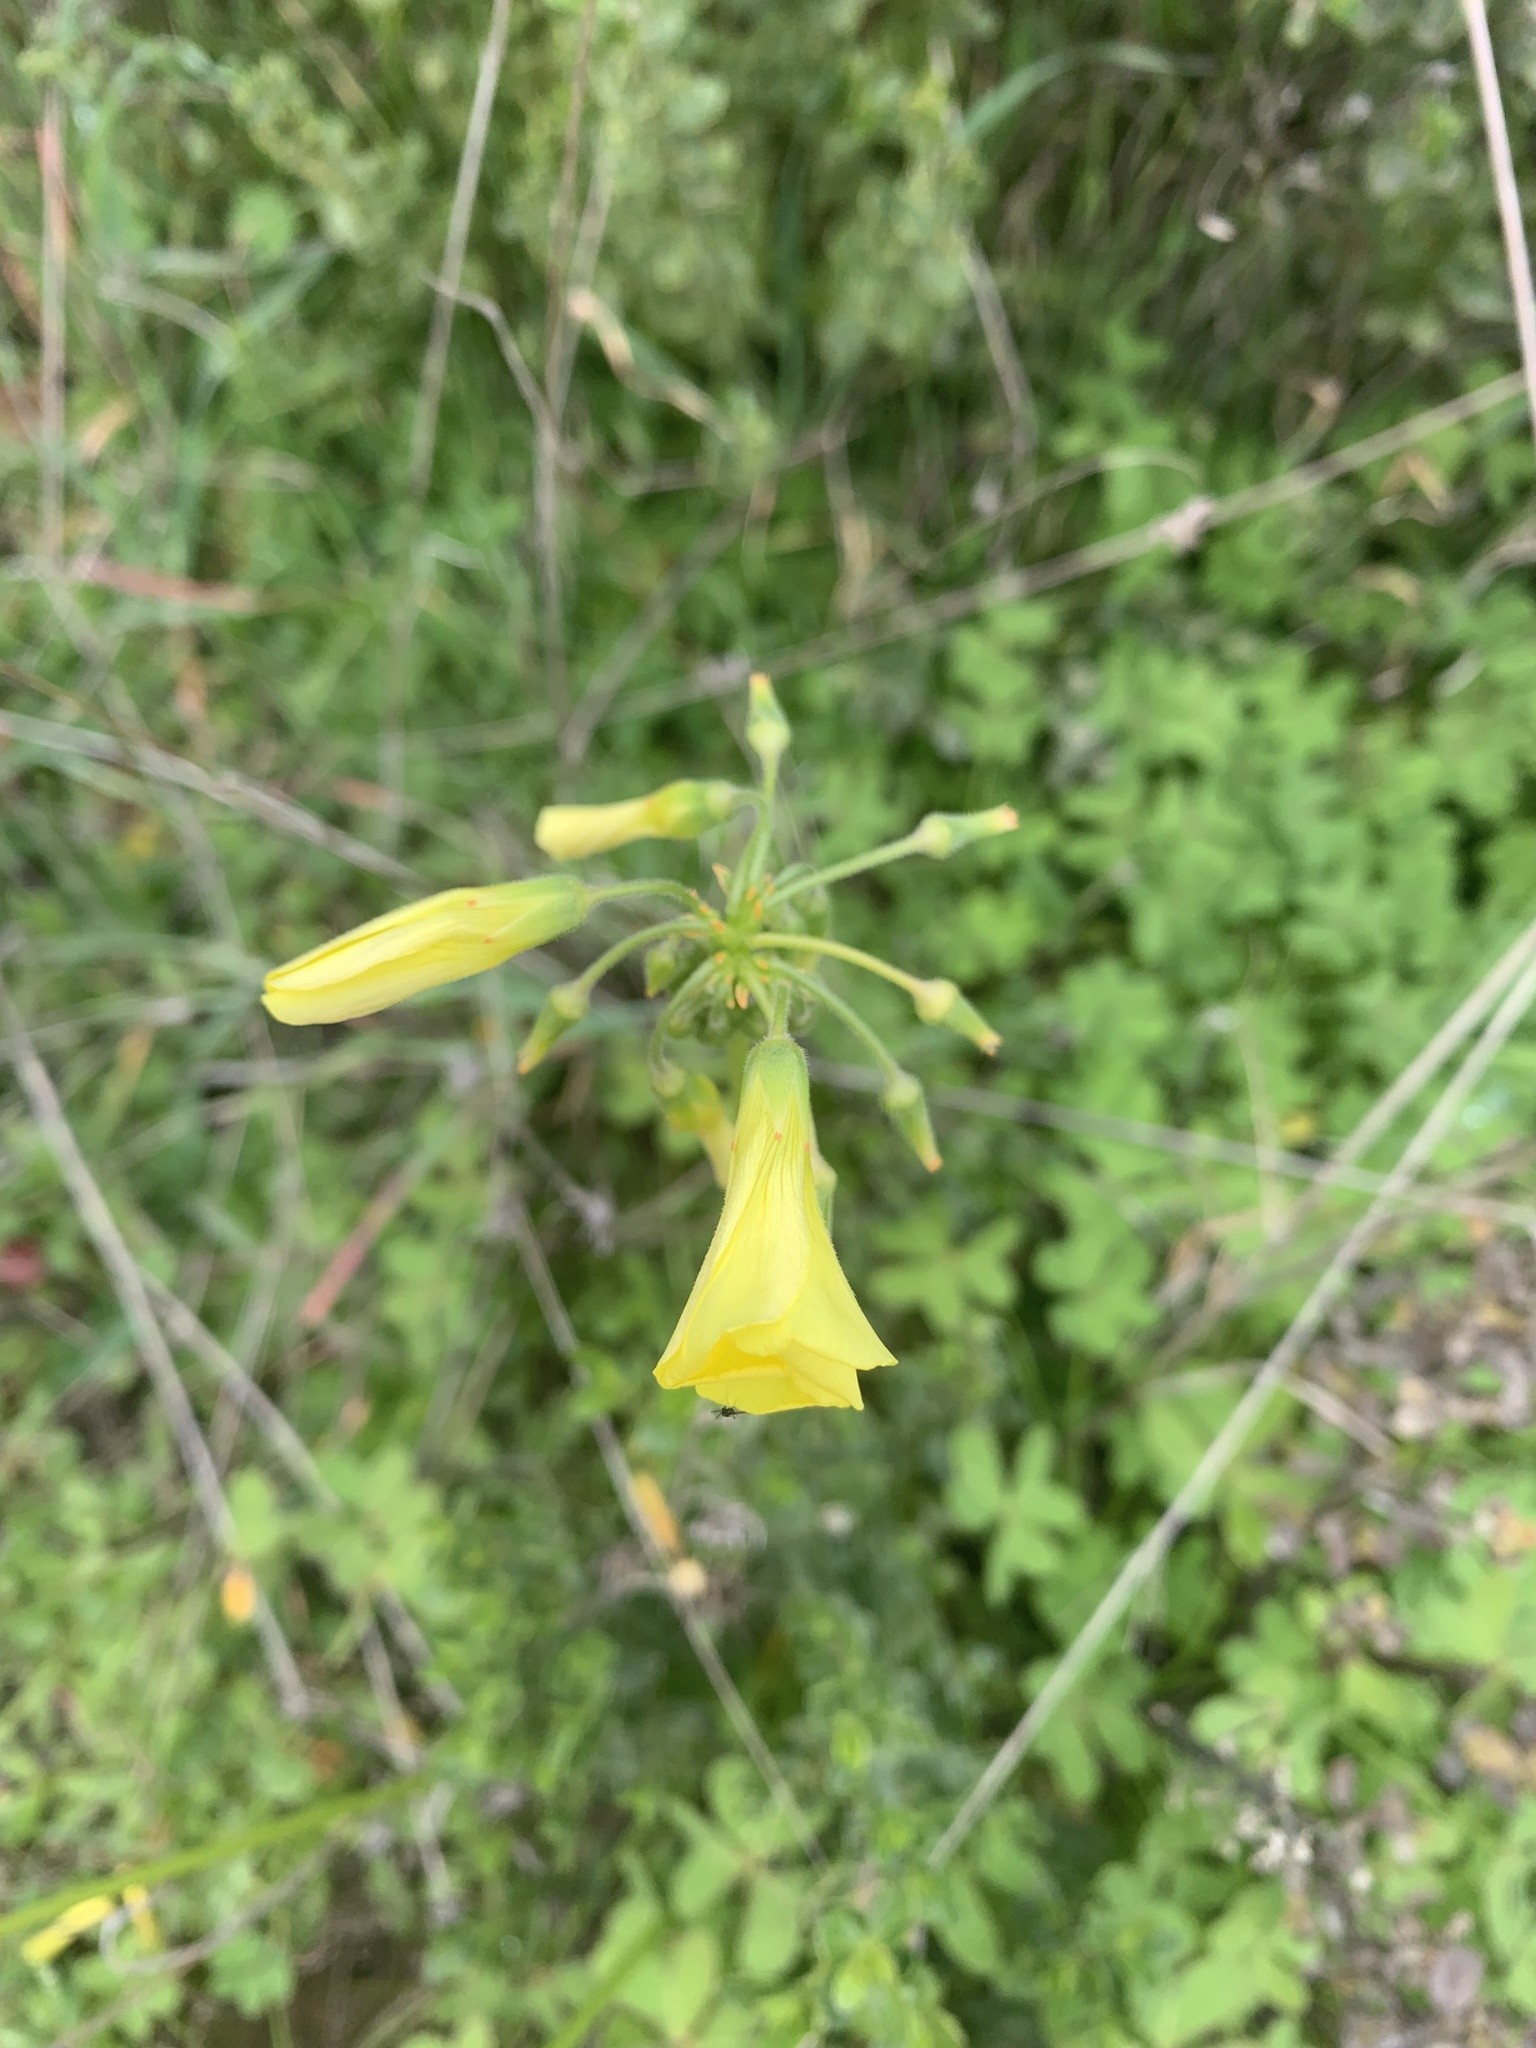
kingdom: Plantae
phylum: Tracheophyta
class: Magnoliopsida
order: Oxalidales
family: Oxalidaceae
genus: Oxalis
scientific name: Oxalis pes-caprae
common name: Bermuda-buttercup
